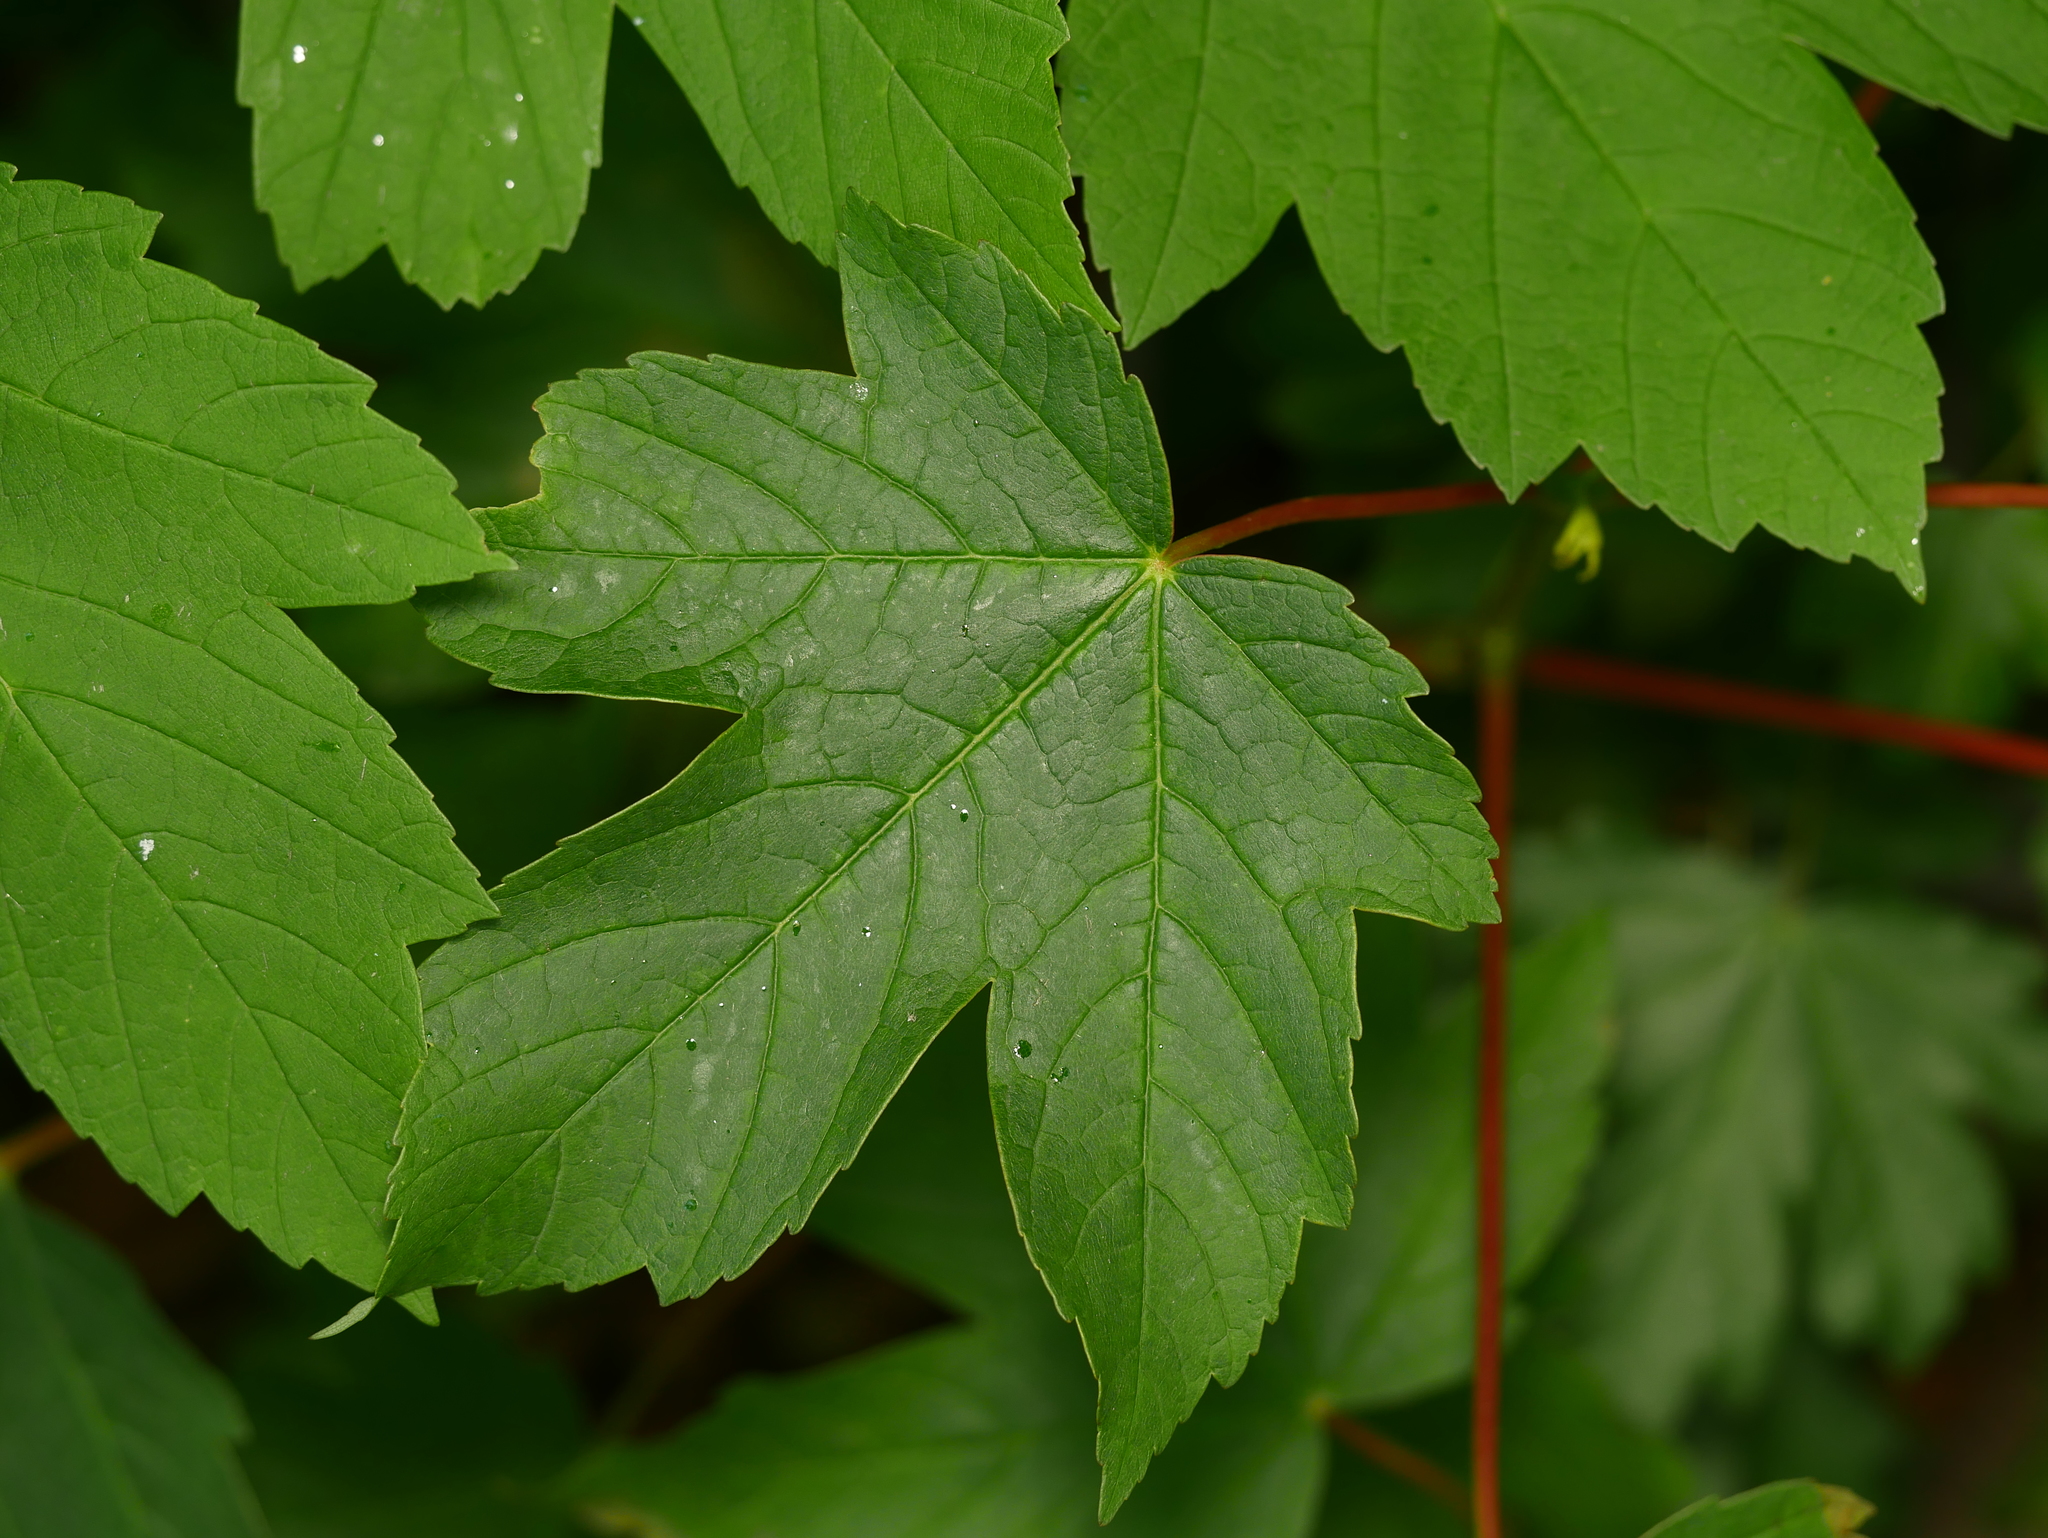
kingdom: Plantae
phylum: Tracheophyta
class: Magnoliopsida
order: Sapindales
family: Sapindaceae
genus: Acer
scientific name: Acer pseudoplatanus
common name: Sycamore
